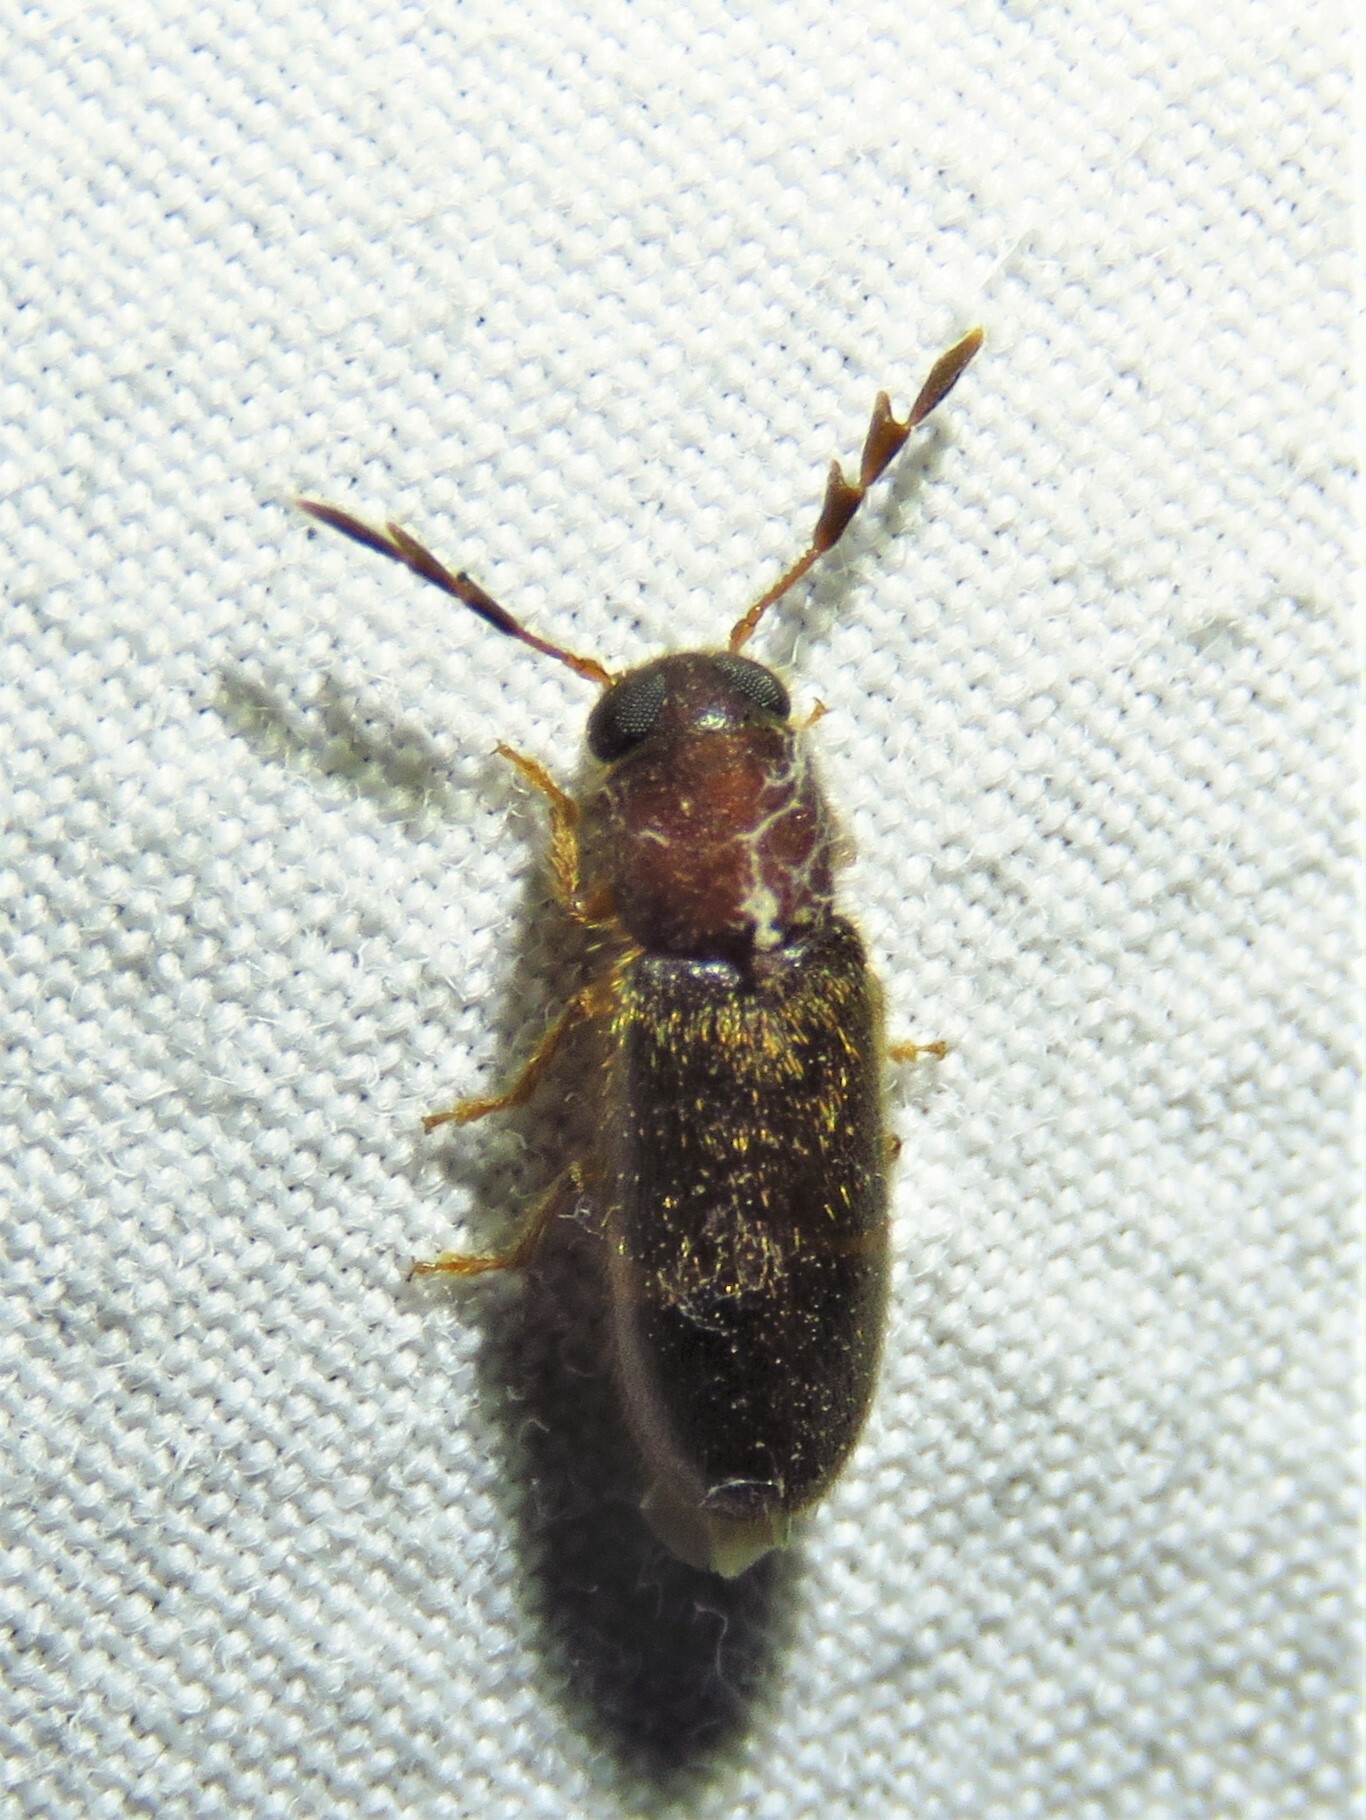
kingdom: Animalia
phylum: Arthropoda
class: Insecta
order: Coleoptera
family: Cleridae
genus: Neorthopleura
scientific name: Neorthopleura texana
